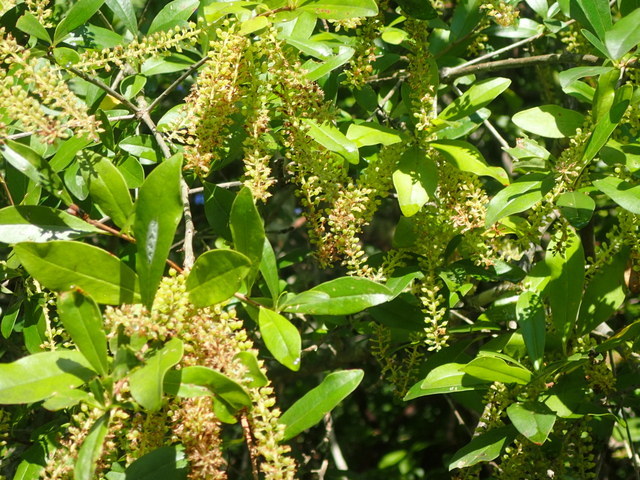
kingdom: Plantae
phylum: Tracheophyta
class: Magnoliopsida
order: Ericales
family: Cyrillaceae
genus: Cyrilla
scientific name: Cyrilla racemiflora
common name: Black titi
